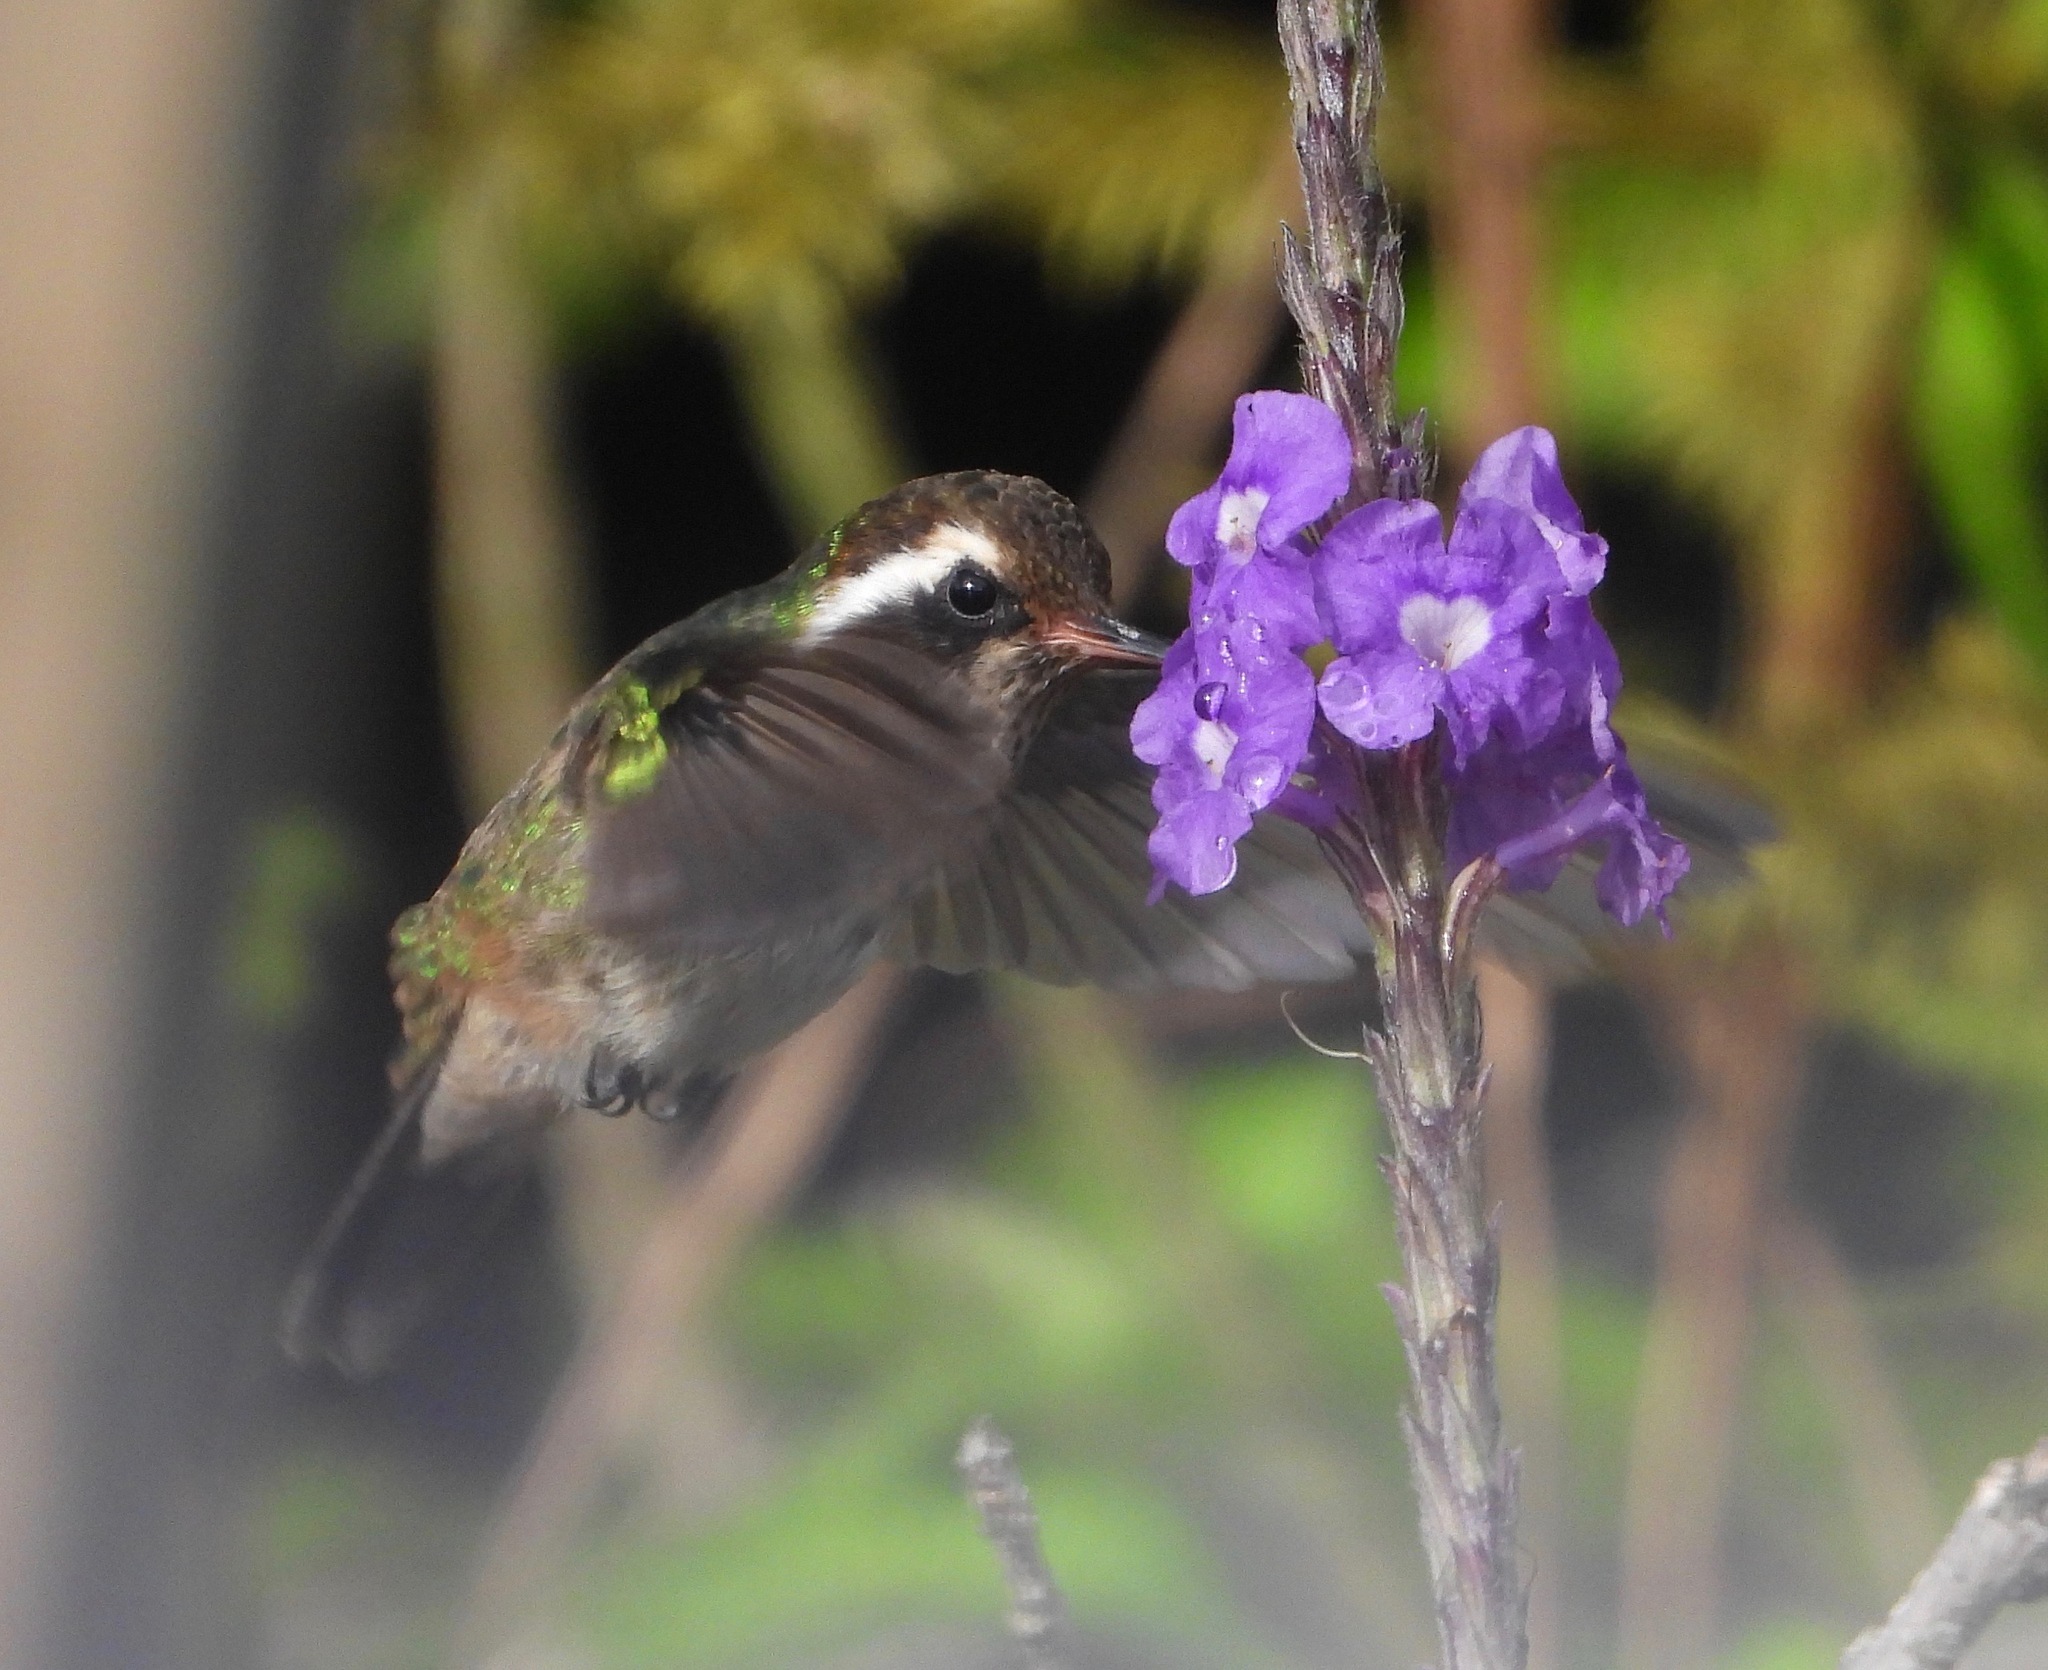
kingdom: Animalia
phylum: Chordata
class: Aves
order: Apodiformes
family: Trochilidae
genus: Basilinna
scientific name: Basilinna leucotis
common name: White-eared hummingbird
